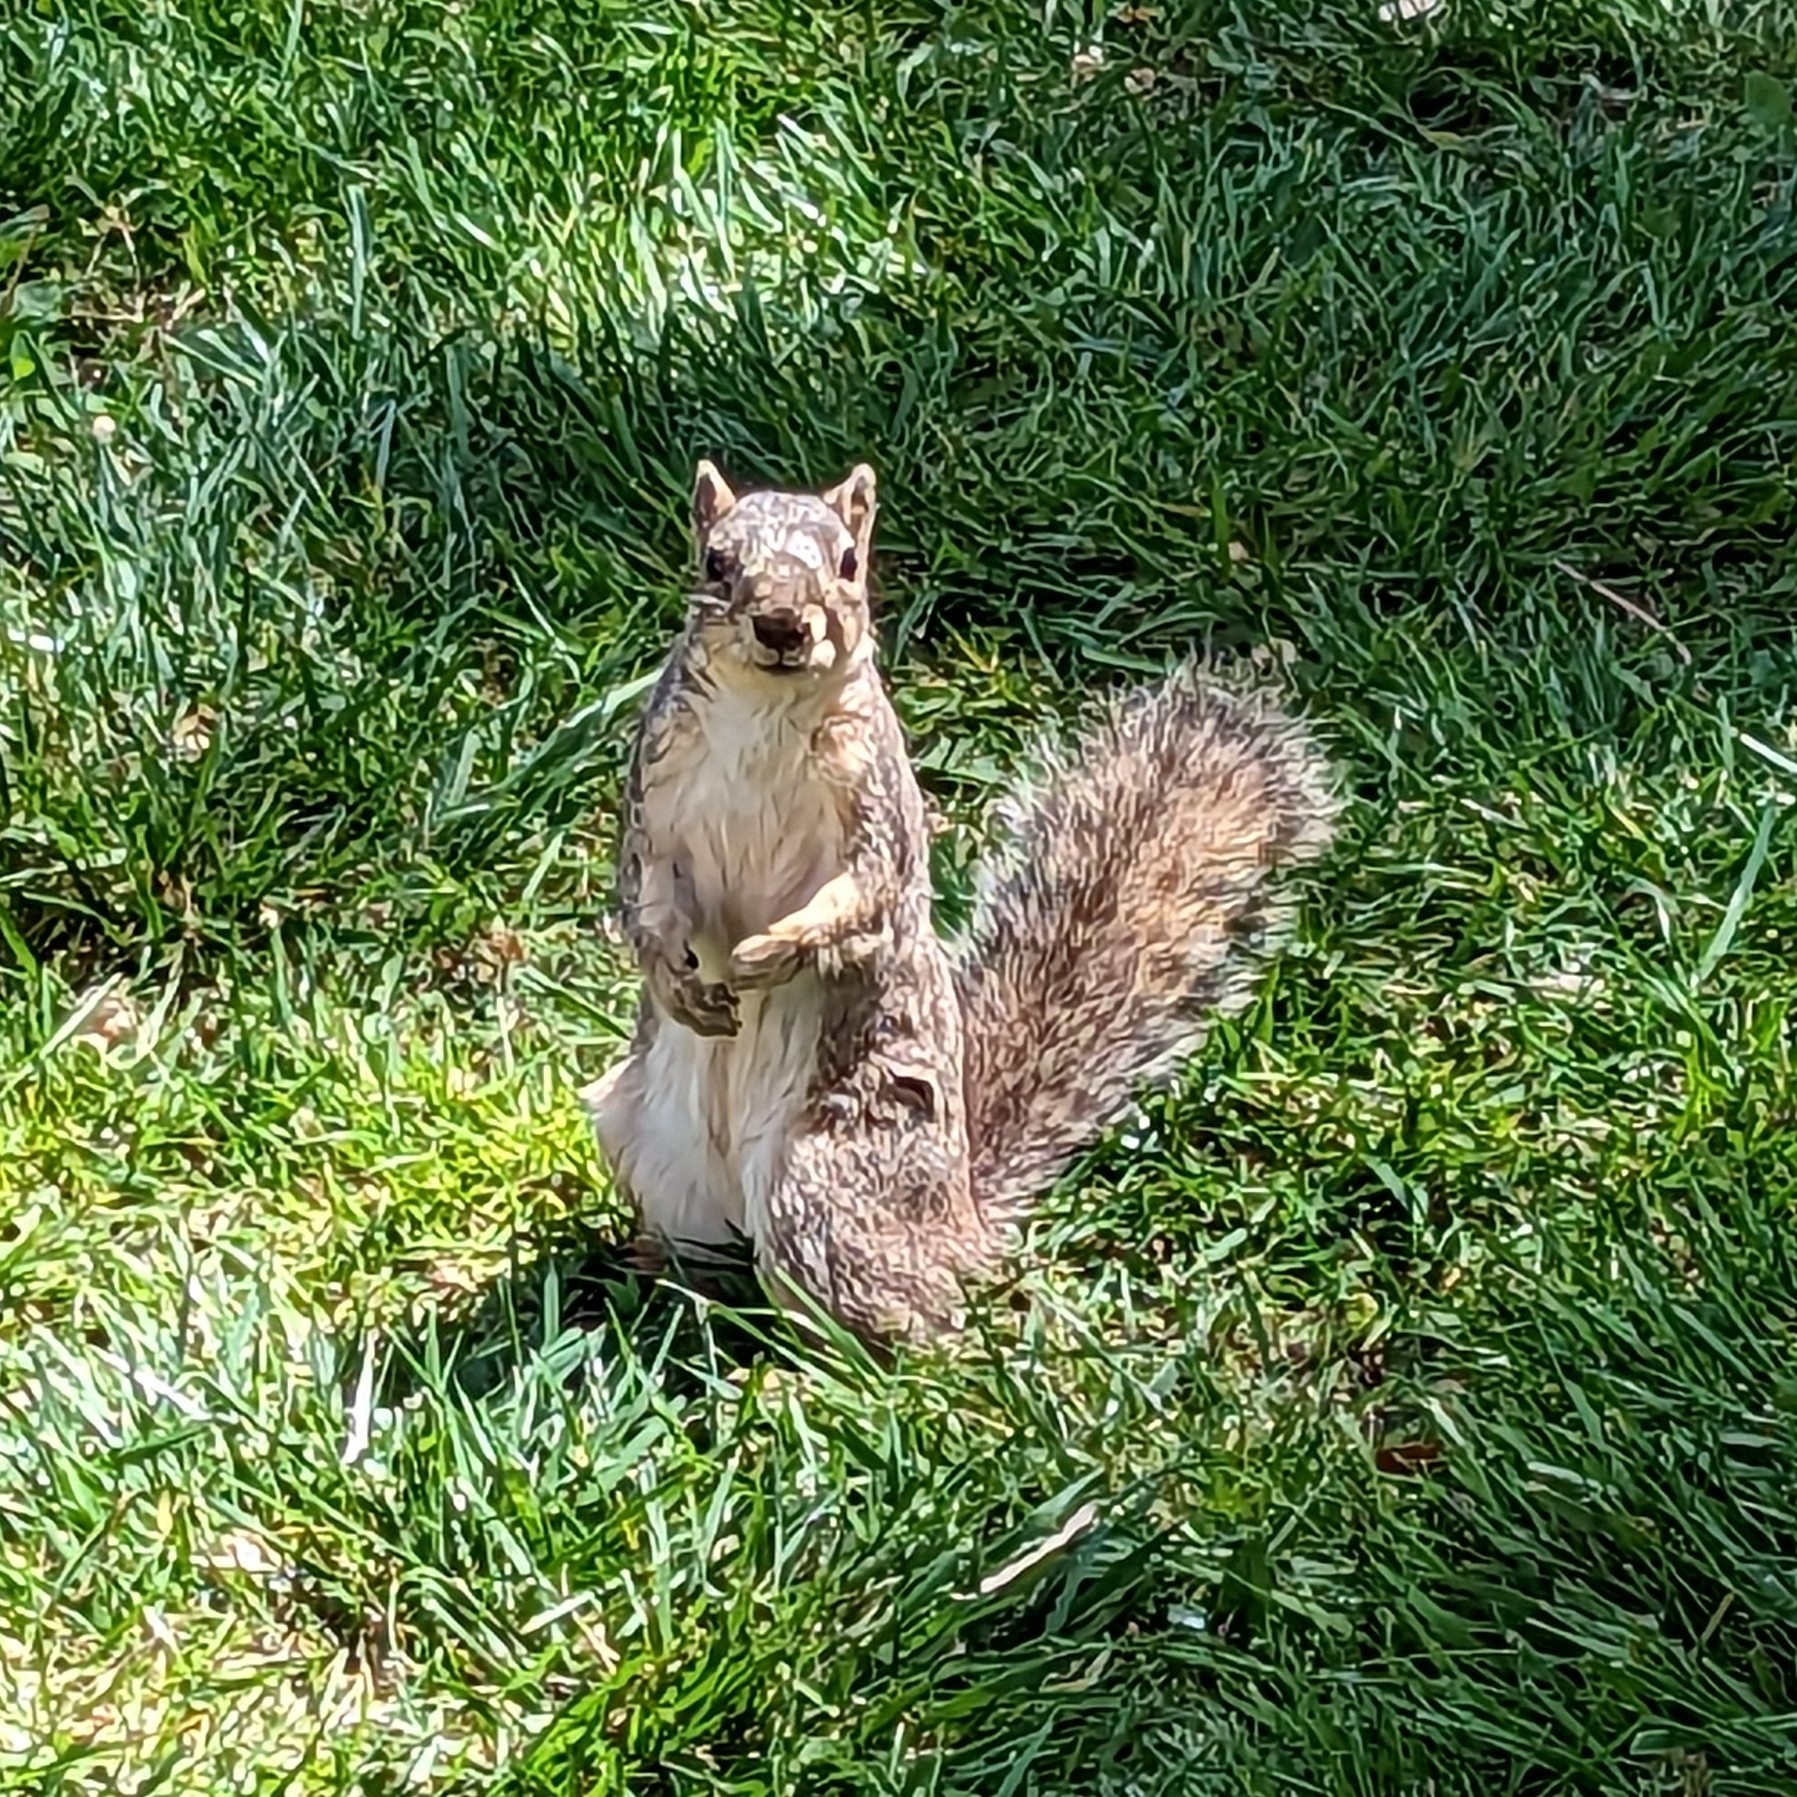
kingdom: Animalia
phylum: Chordata
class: Mammalia
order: Rodentia
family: Sciuridae
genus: Sciurus
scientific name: Sciurus niger
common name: Fox squirrel
